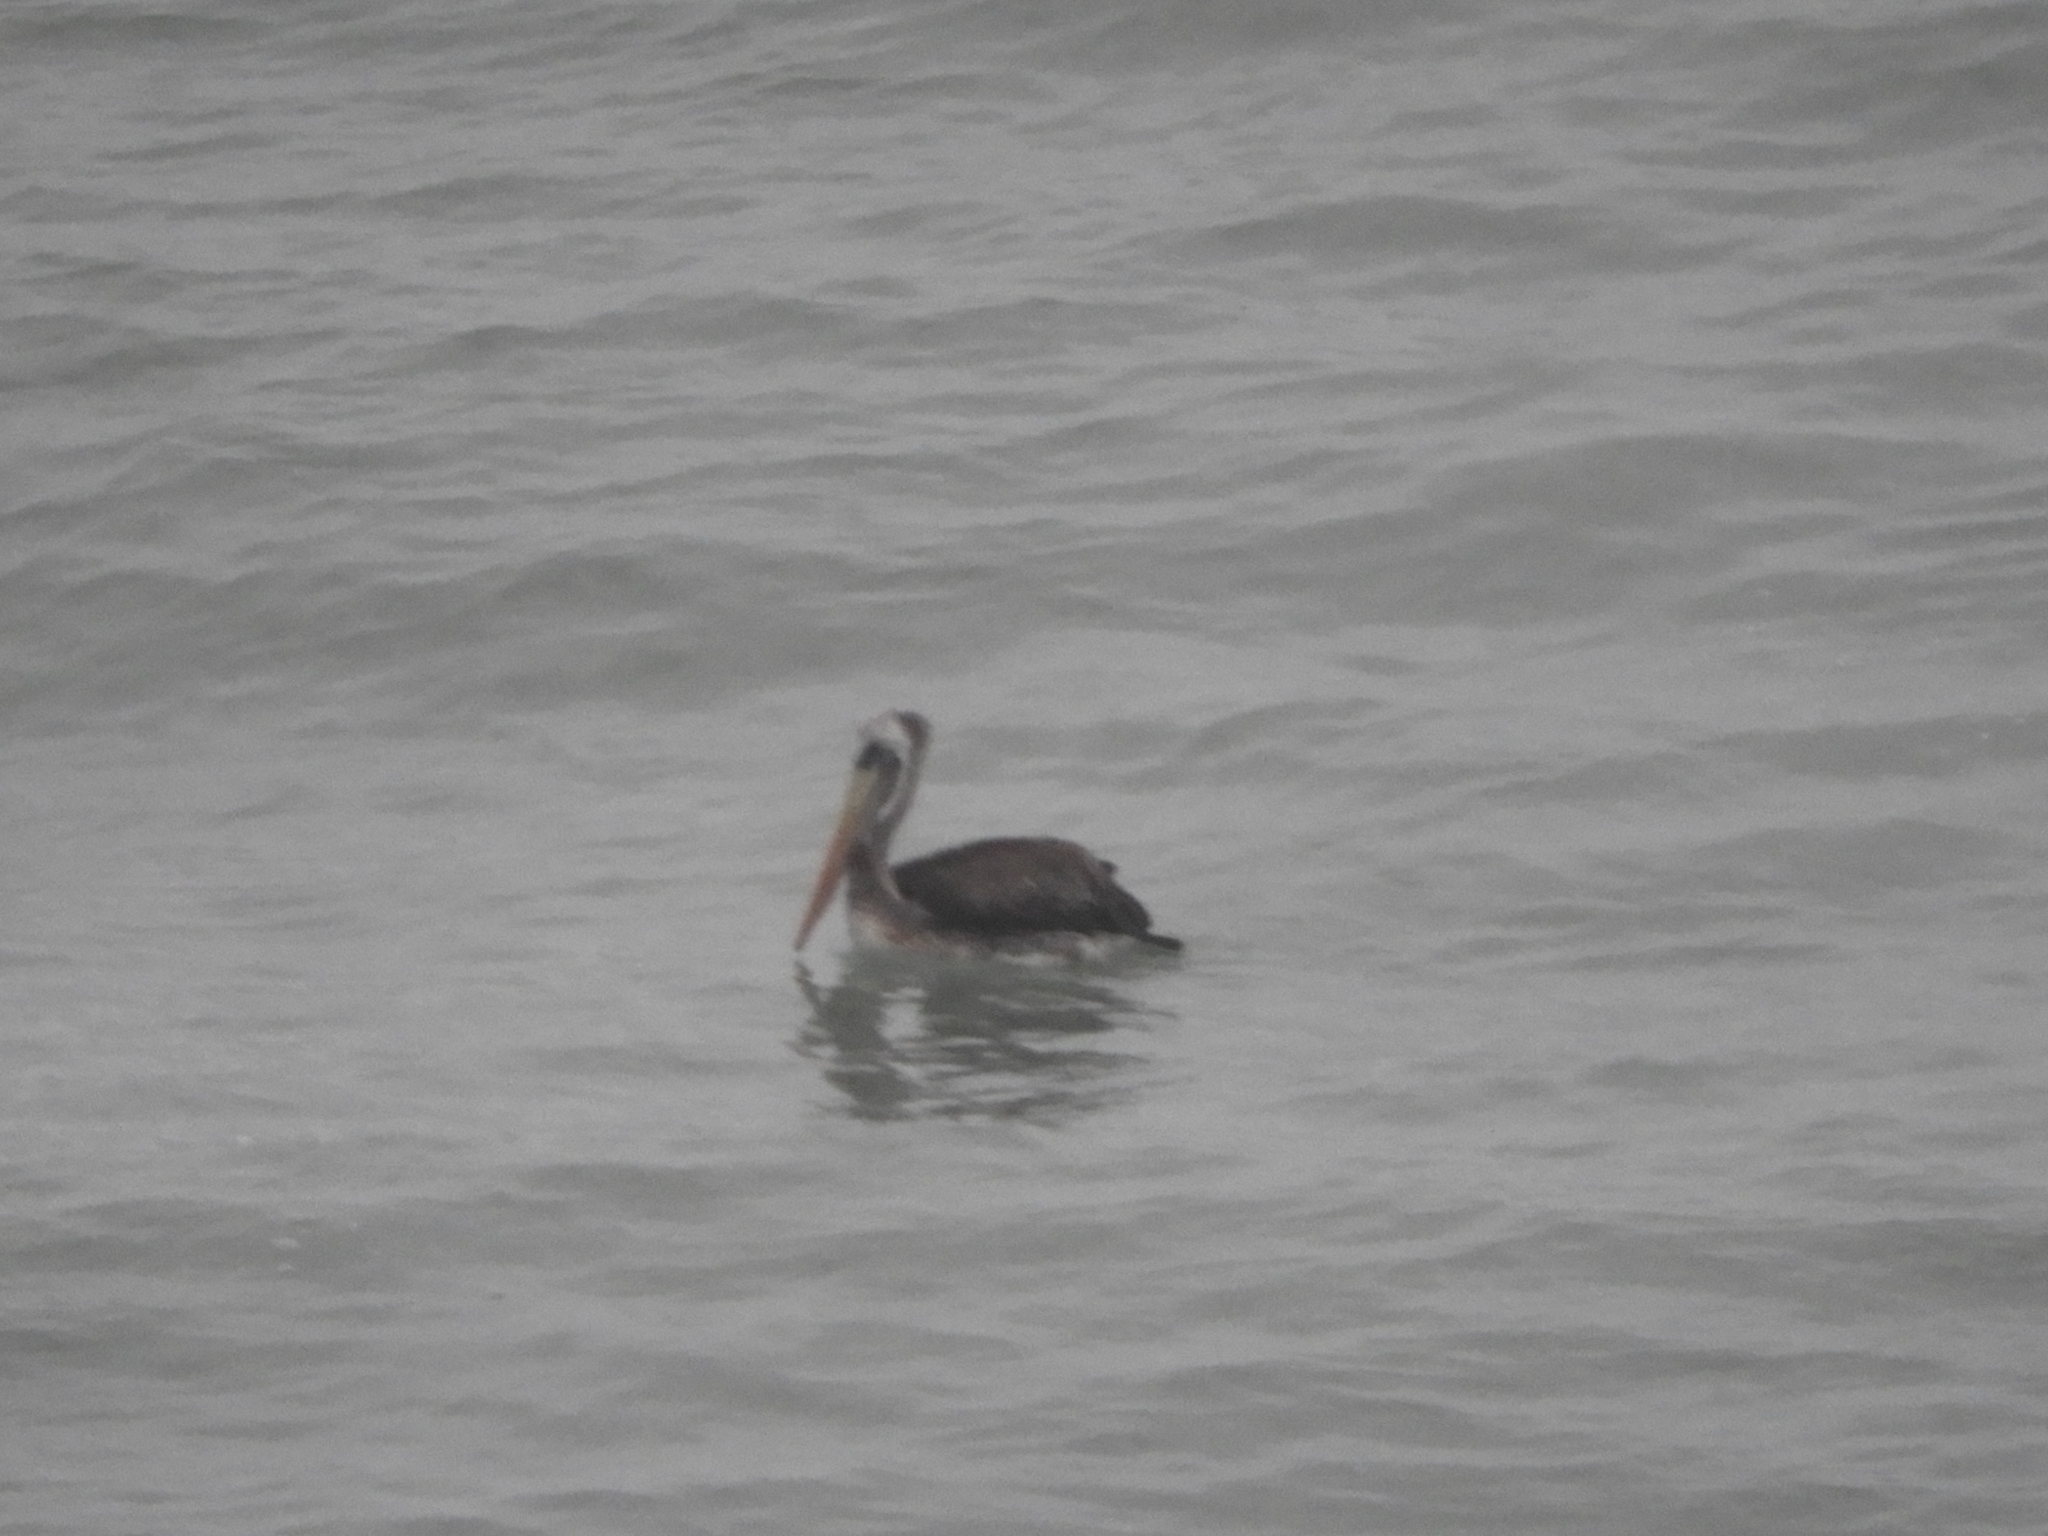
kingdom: Animalia
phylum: Chordata
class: Aves
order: Pelecaniformes
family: Pelecanidae
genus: Pelecanus
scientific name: Pelecanus thagus
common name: Peruvian pelican
